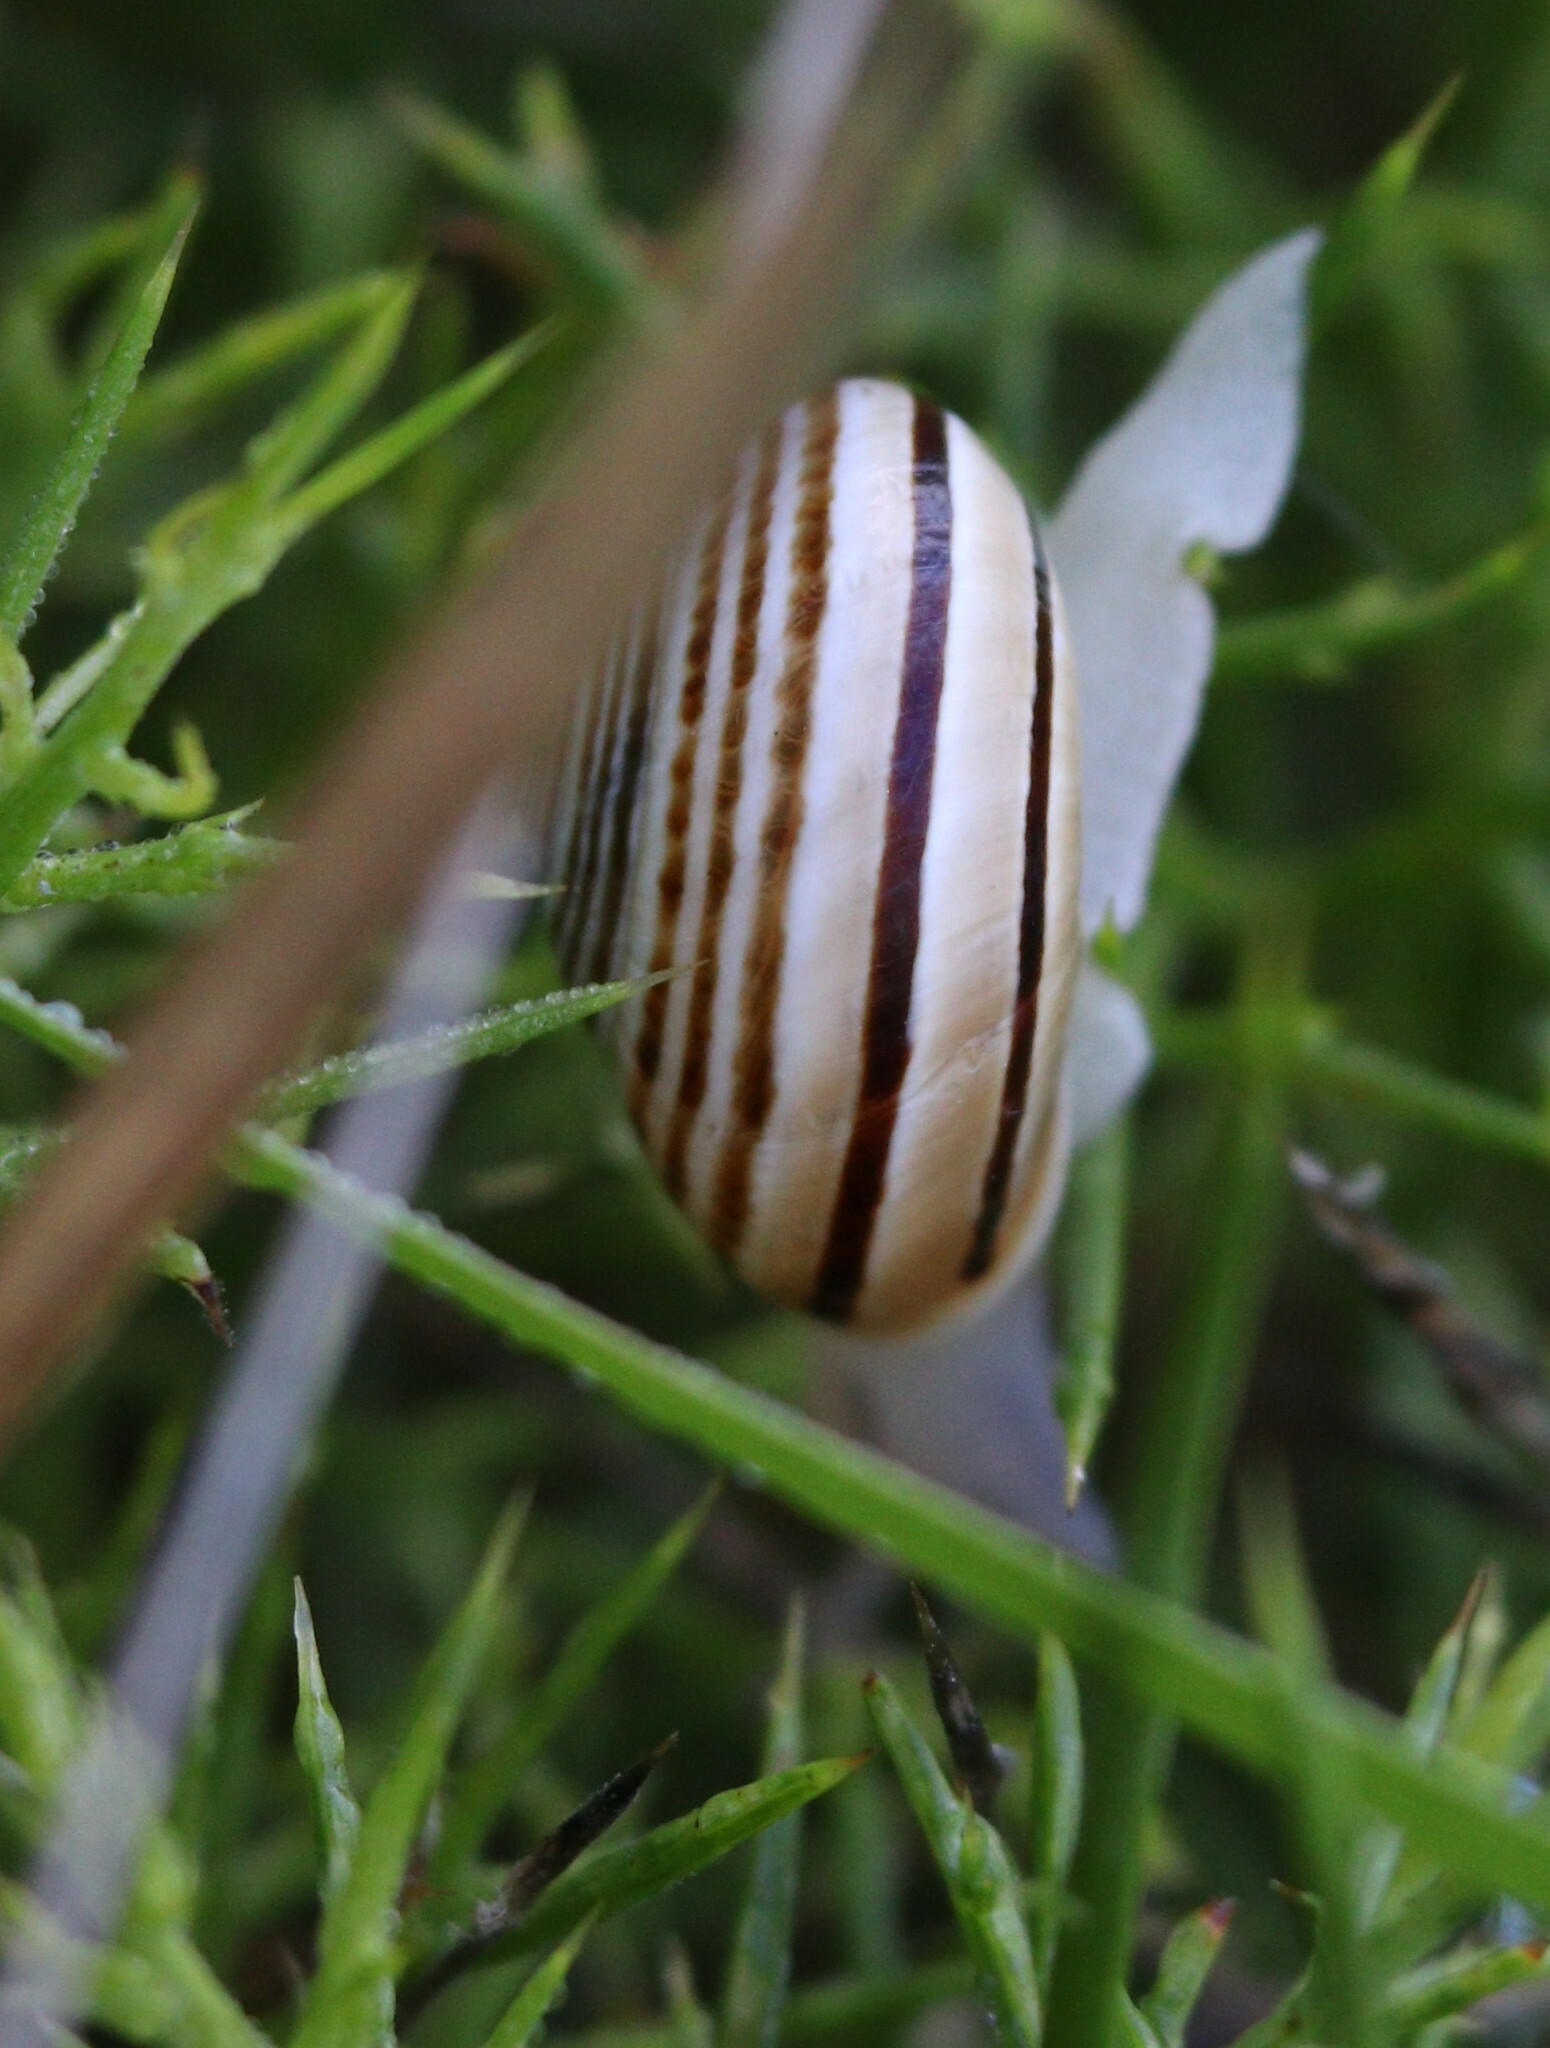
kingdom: Animalia
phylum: Mollusca
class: Gastropoda
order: Stylommatophora
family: Helicidae
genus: Pseudotachea
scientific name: Pseudotachea splendida
